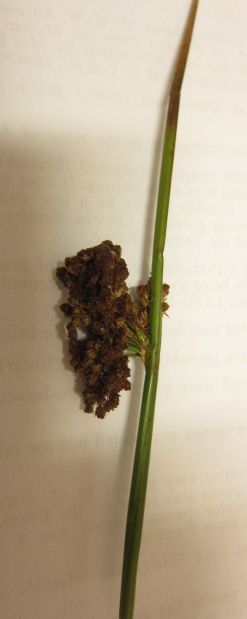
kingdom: Plantae
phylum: Tracheophyta
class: Liliopsida
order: Poales
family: Juncaceae
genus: Juncus
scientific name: Juncus effusus
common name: Soft rush
